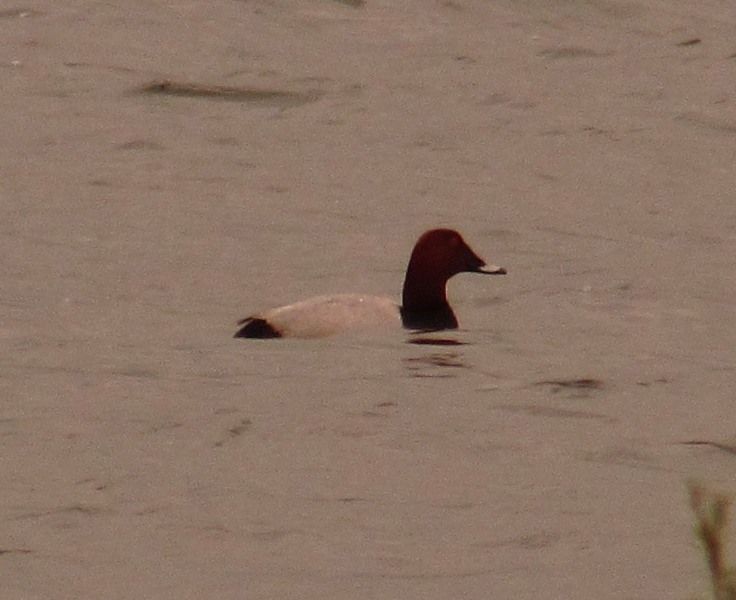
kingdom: Animalia
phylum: Chordata
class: Aves
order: Anseriformes
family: Anatidae
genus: Aythya
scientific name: Aythya ferina
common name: Common pochard
